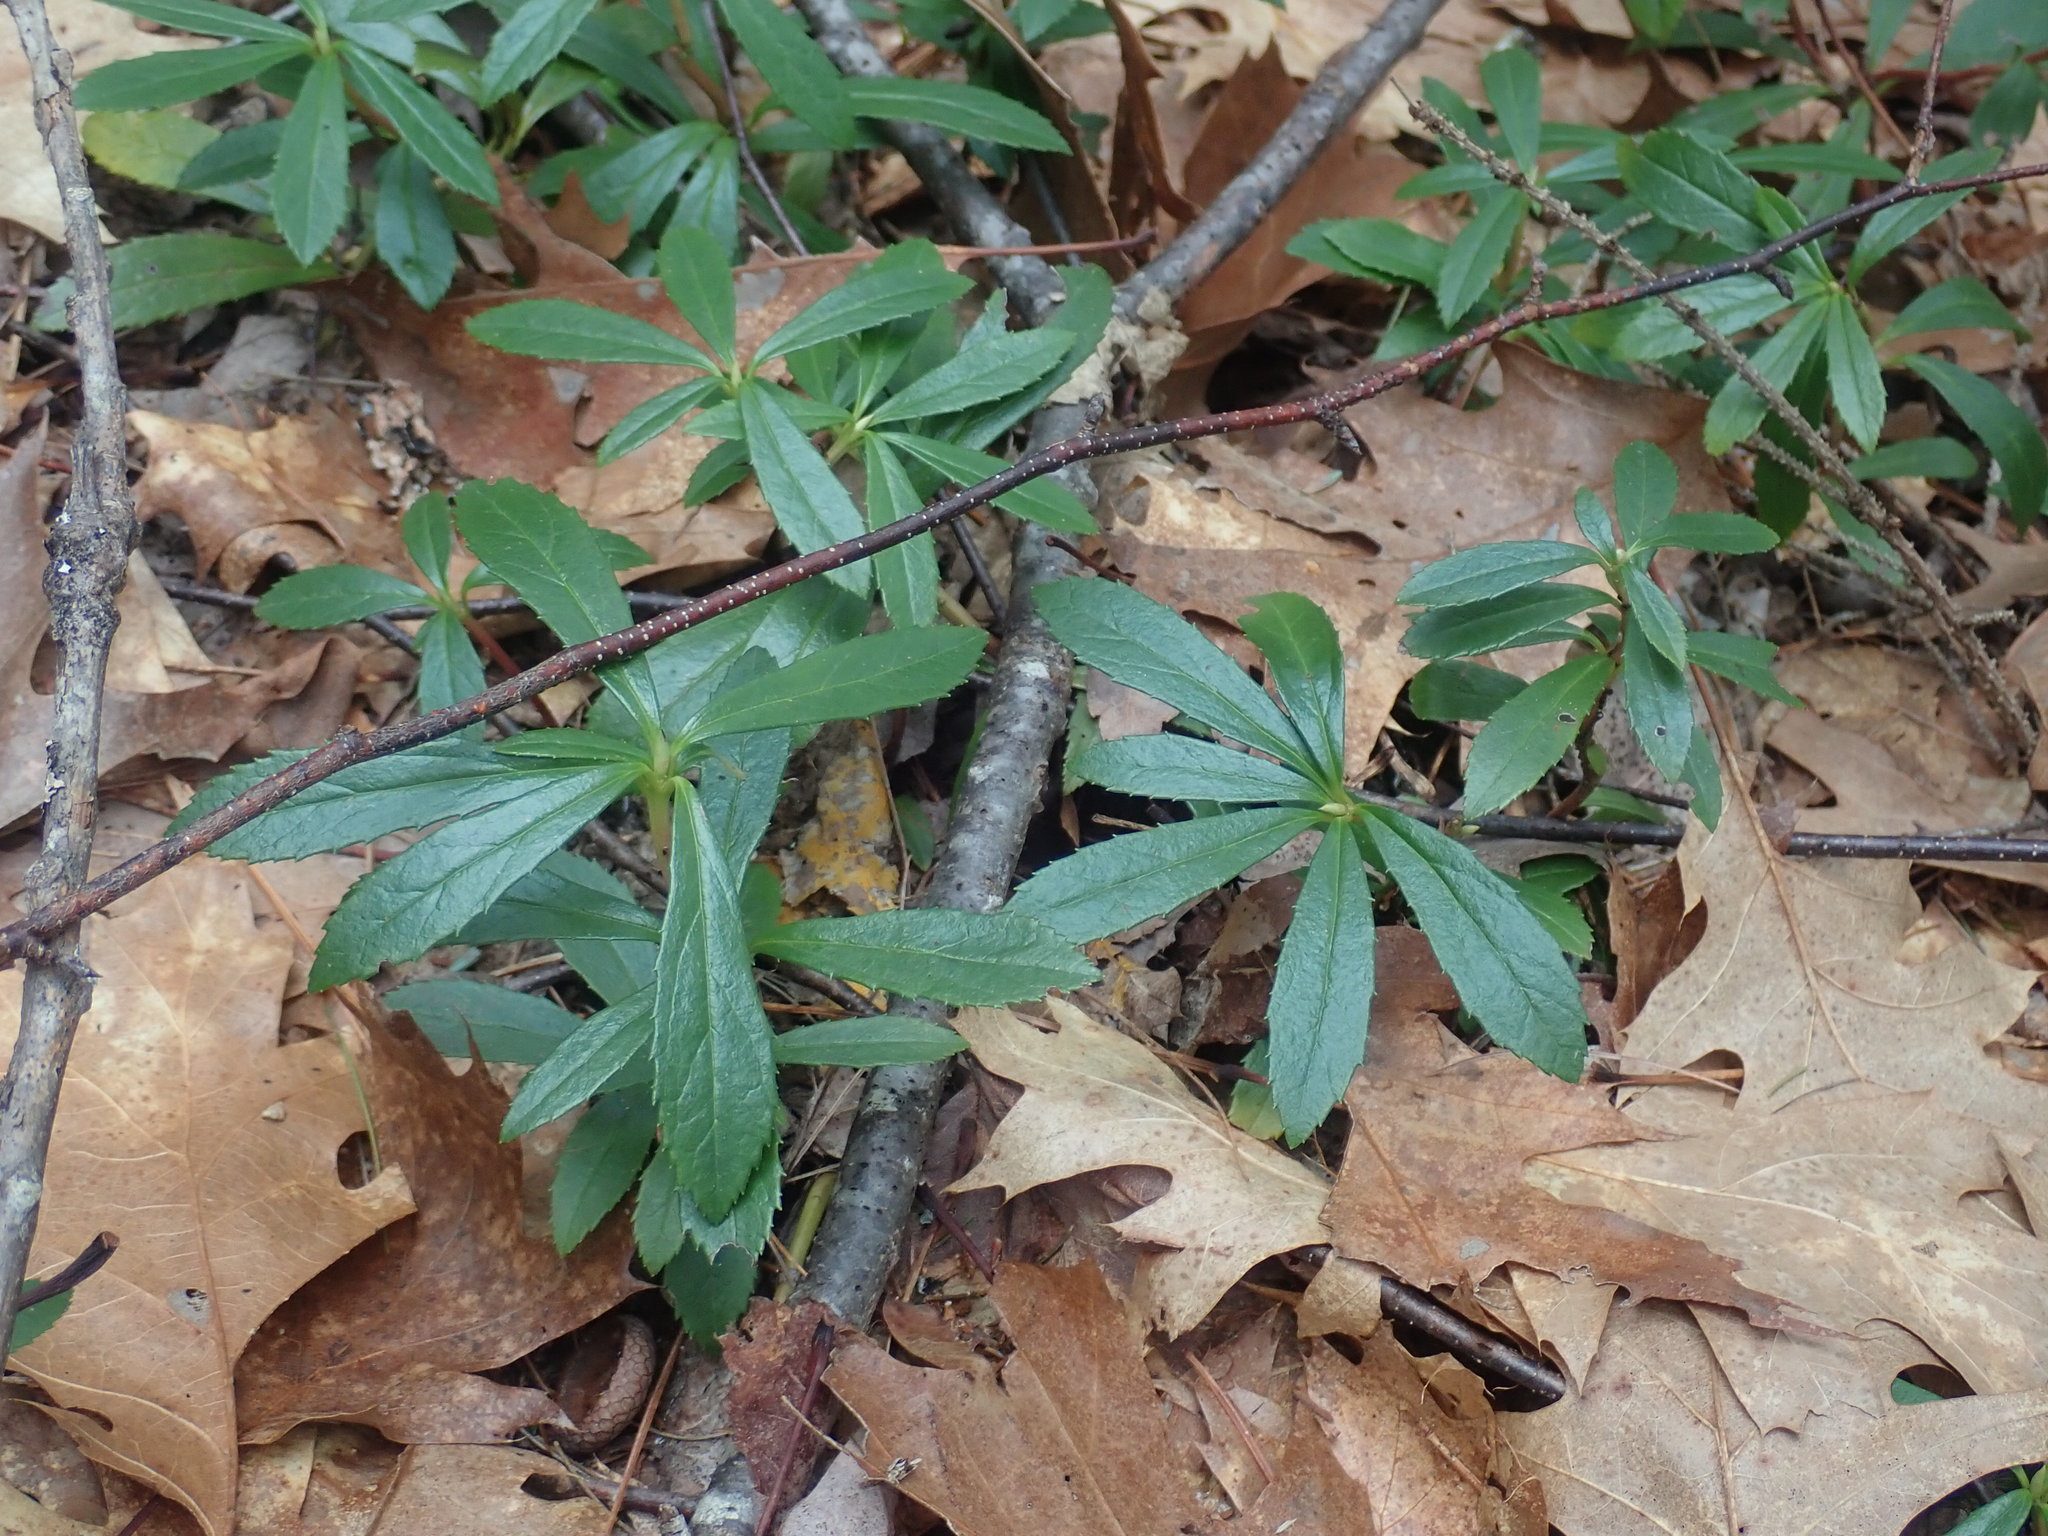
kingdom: Plantae
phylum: Tracheophyta
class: Magnoliopsida
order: Ericales
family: Ericaceae
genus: Chimaphila
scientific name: Chimaphila umbellata
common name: Pipsissewa
